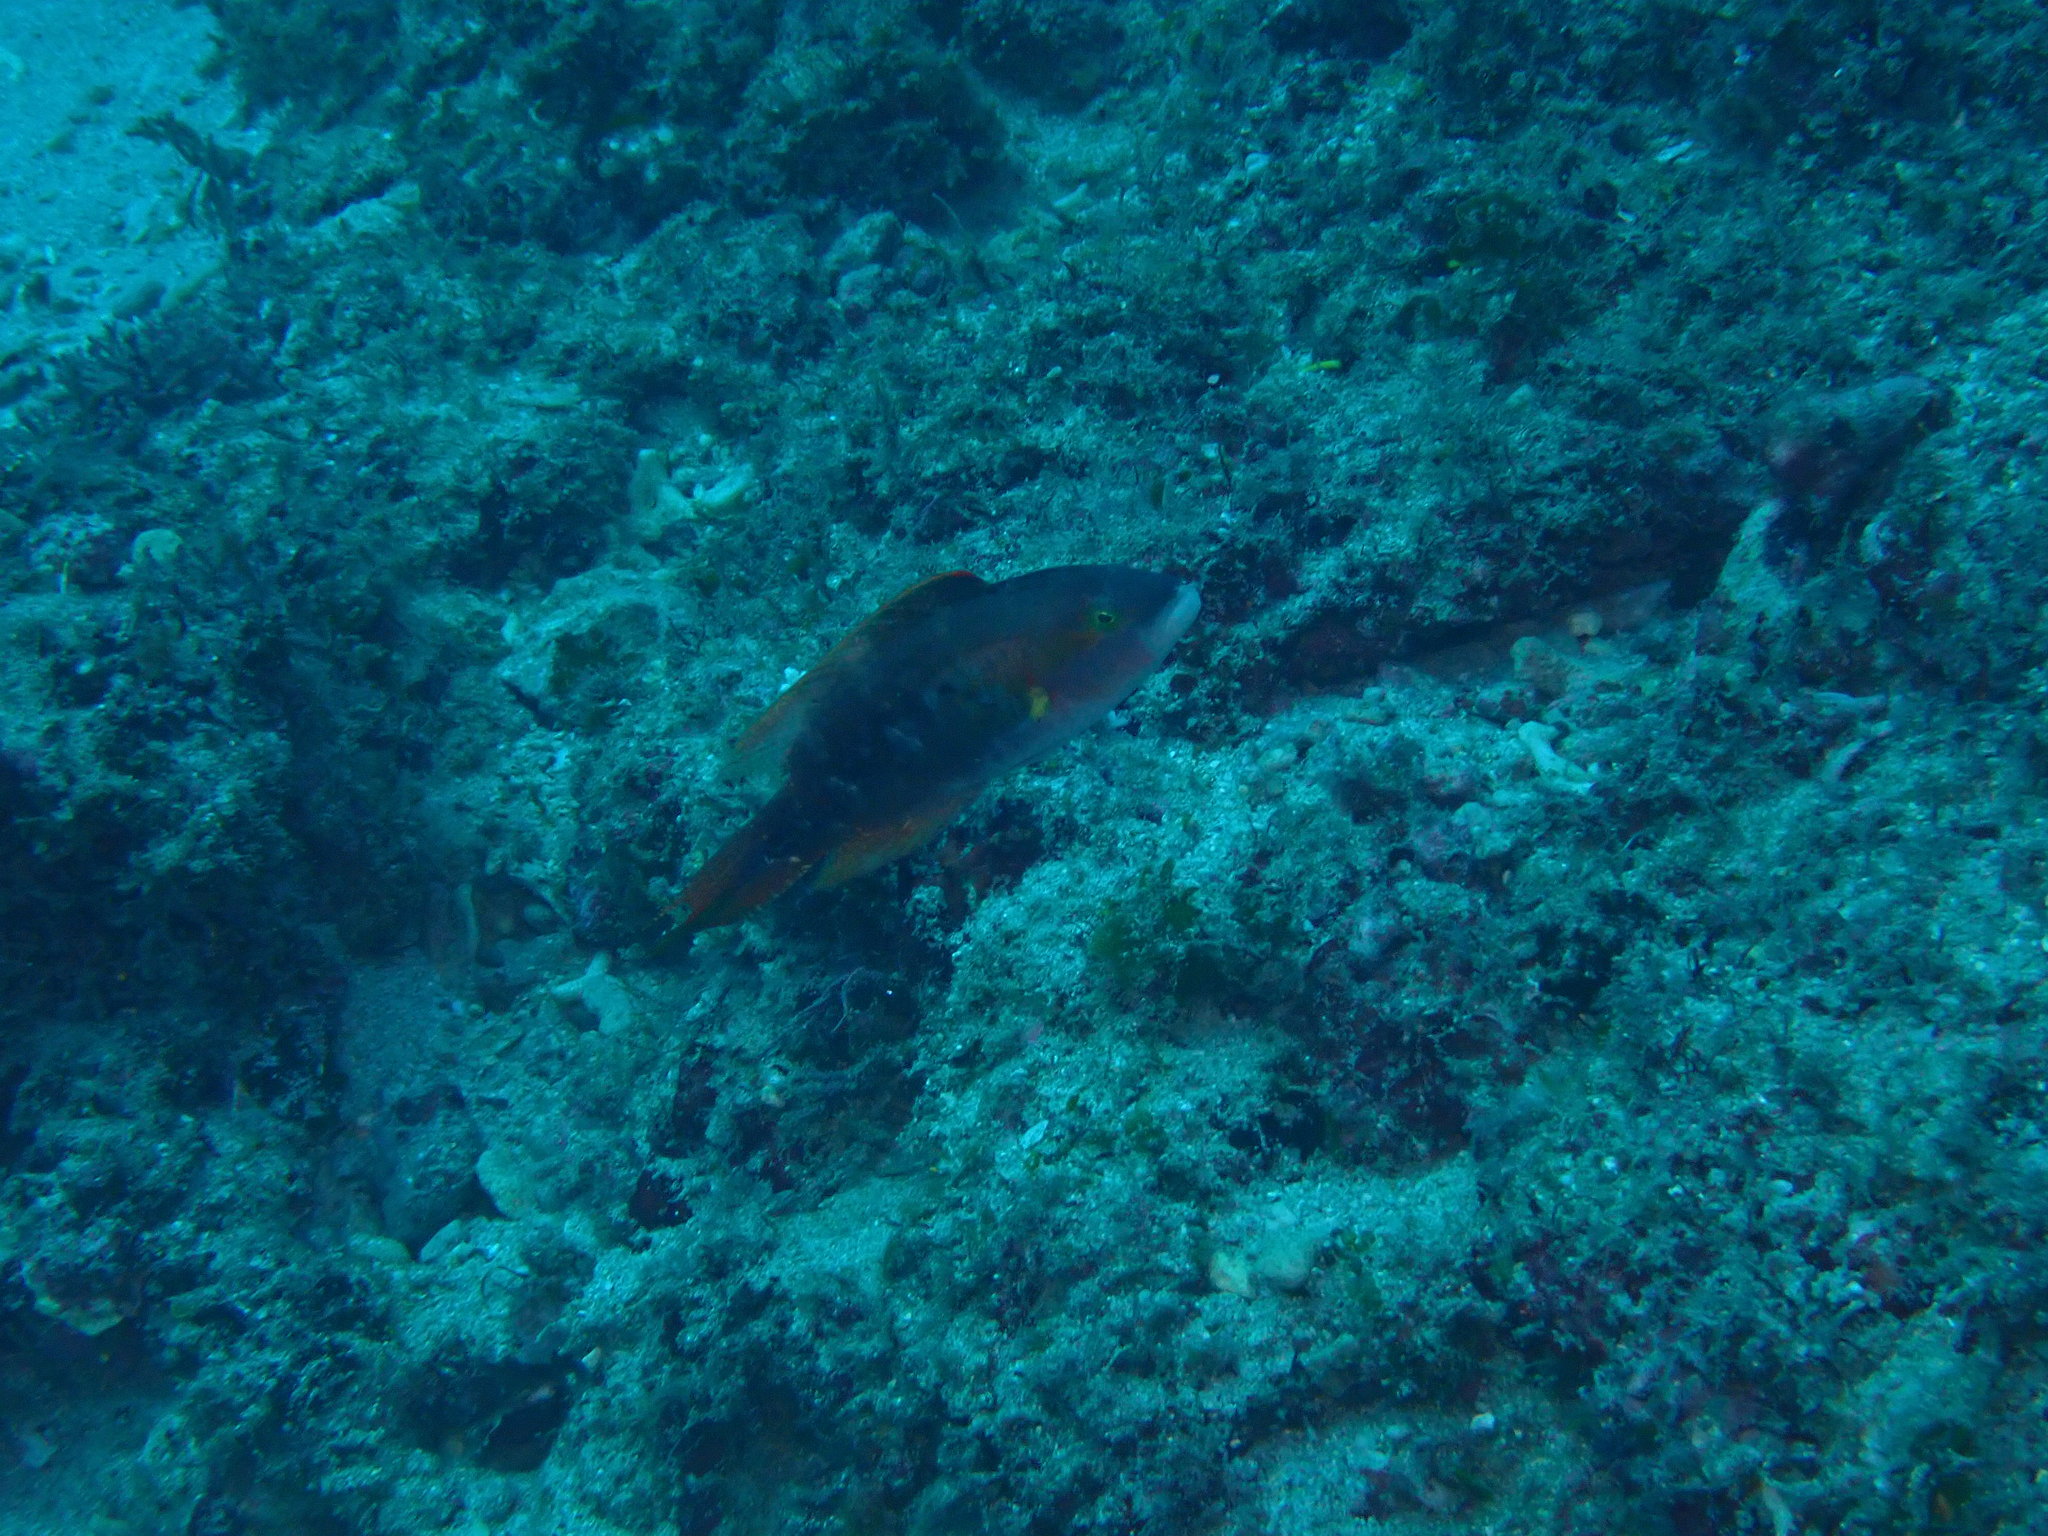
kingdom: Animalia
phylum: Chordata
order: Perciformes
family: Labridae
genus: Oxycheilinus
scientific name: Oxycheilinus bimaculatus
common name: Comettailed wrasse
